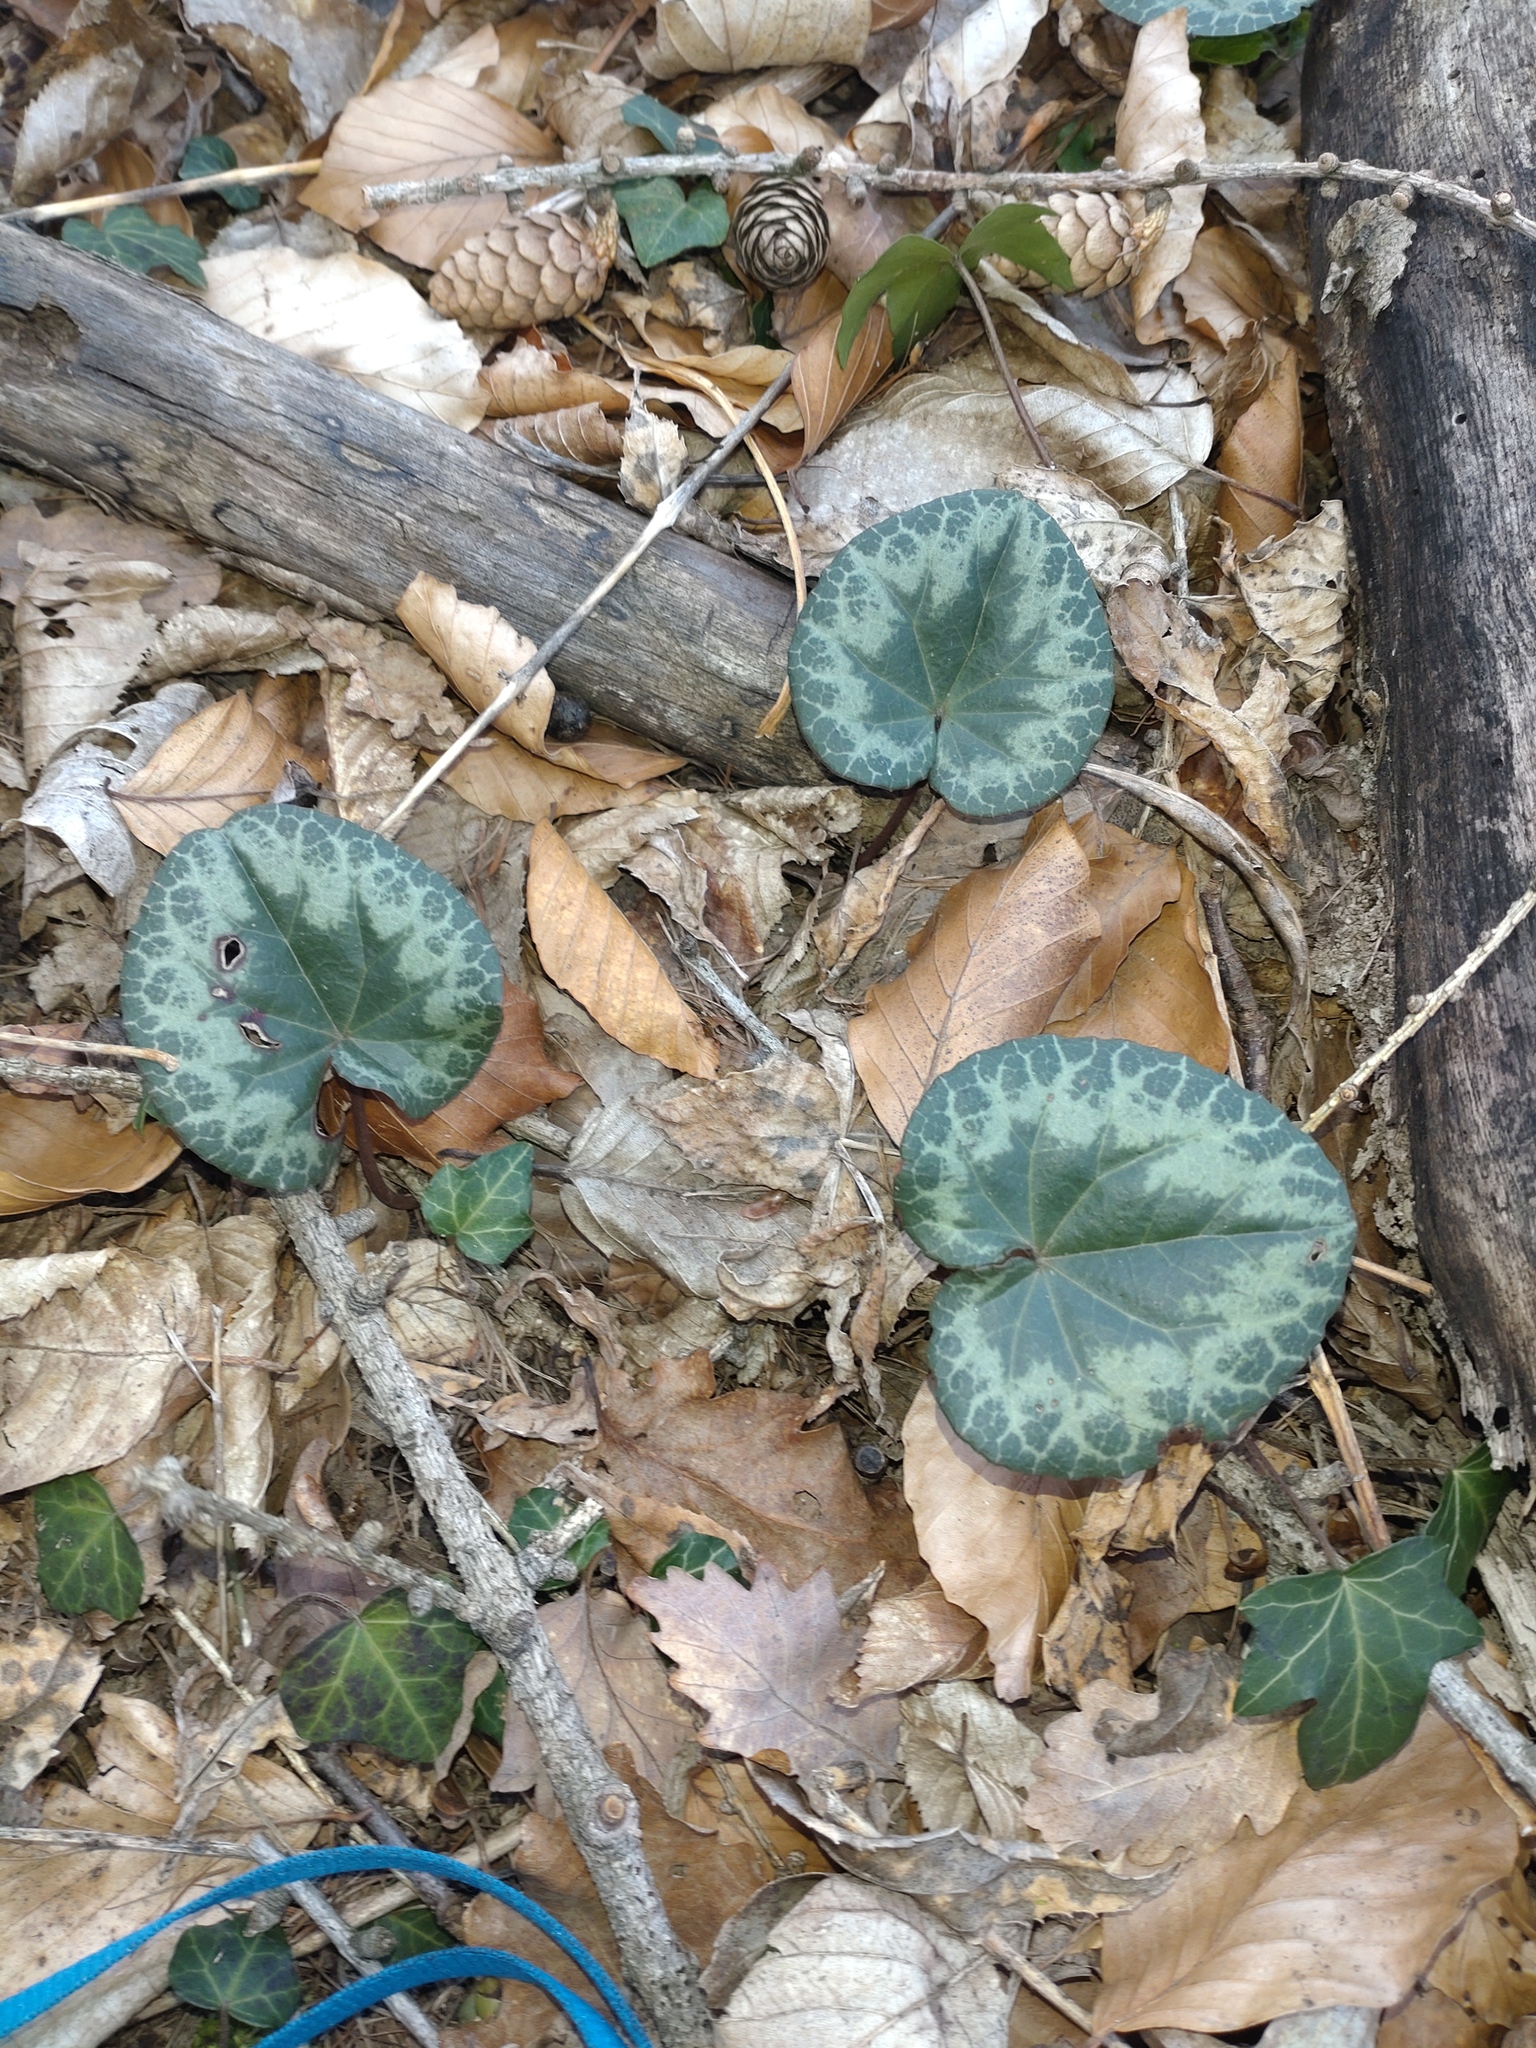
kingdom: Plantae
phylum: Tracheophyta
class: Magnoliopsida
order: Ericales
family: Primulaceae
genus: Cyclamen
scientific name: Cyclamen purpurascens
